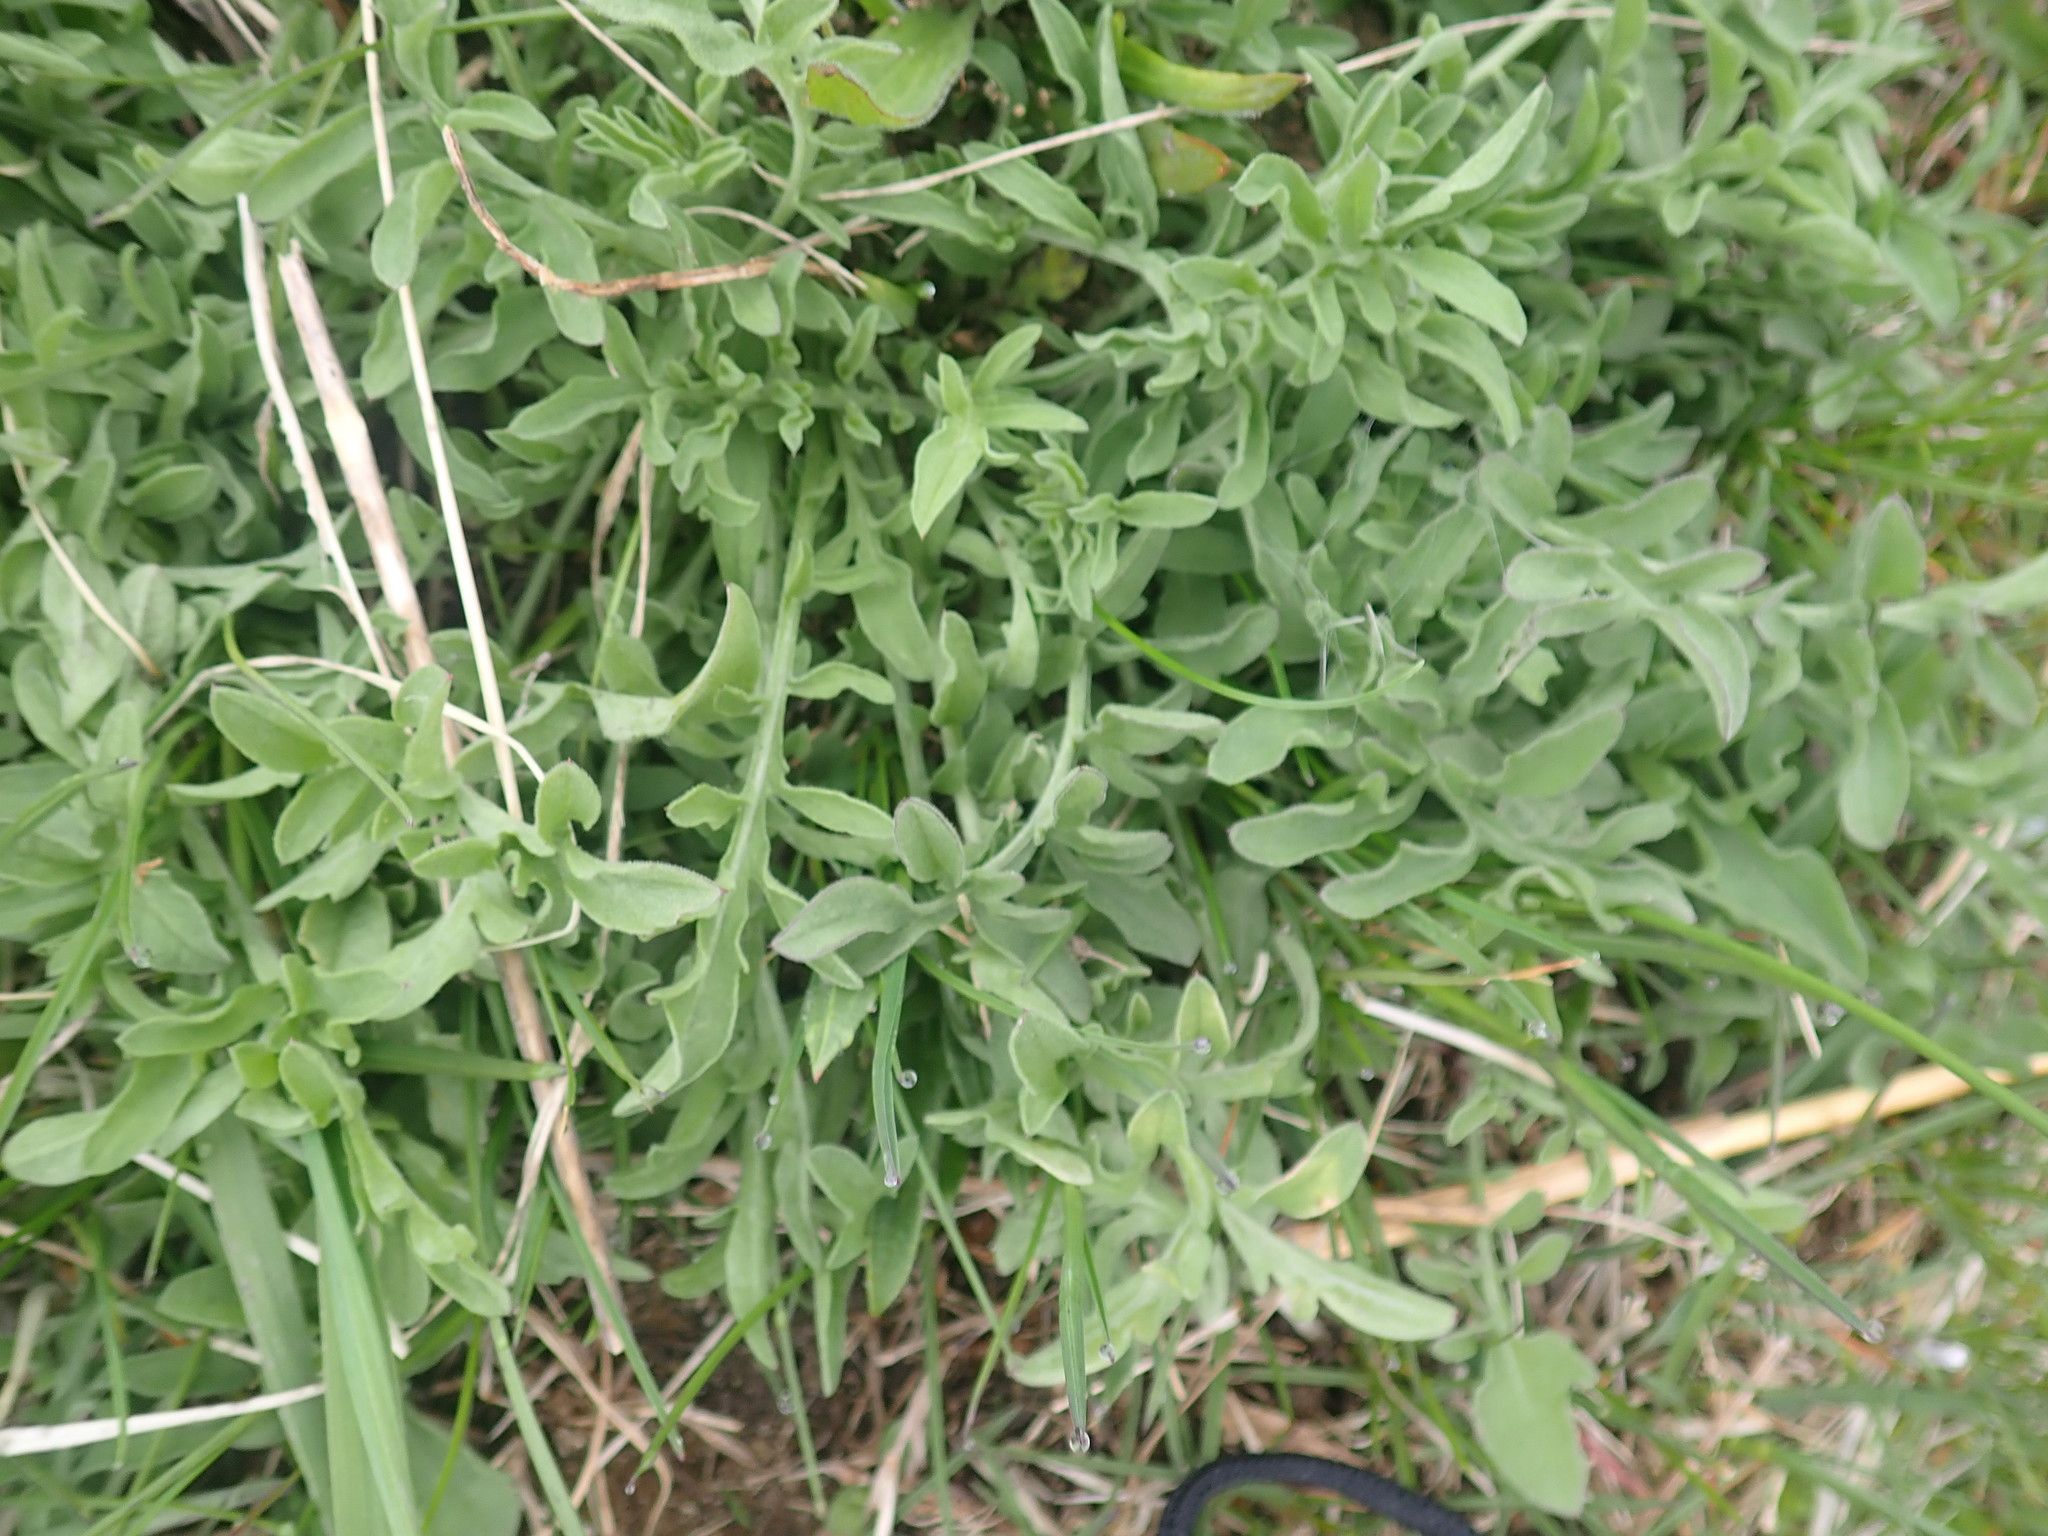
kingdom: Plantae
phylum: Tracheophyta
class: Magnoliopsida
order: Asterales
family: Asteraceae
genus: Centaurea
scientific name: Centaurea stoebe
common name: Spotted knapweed
